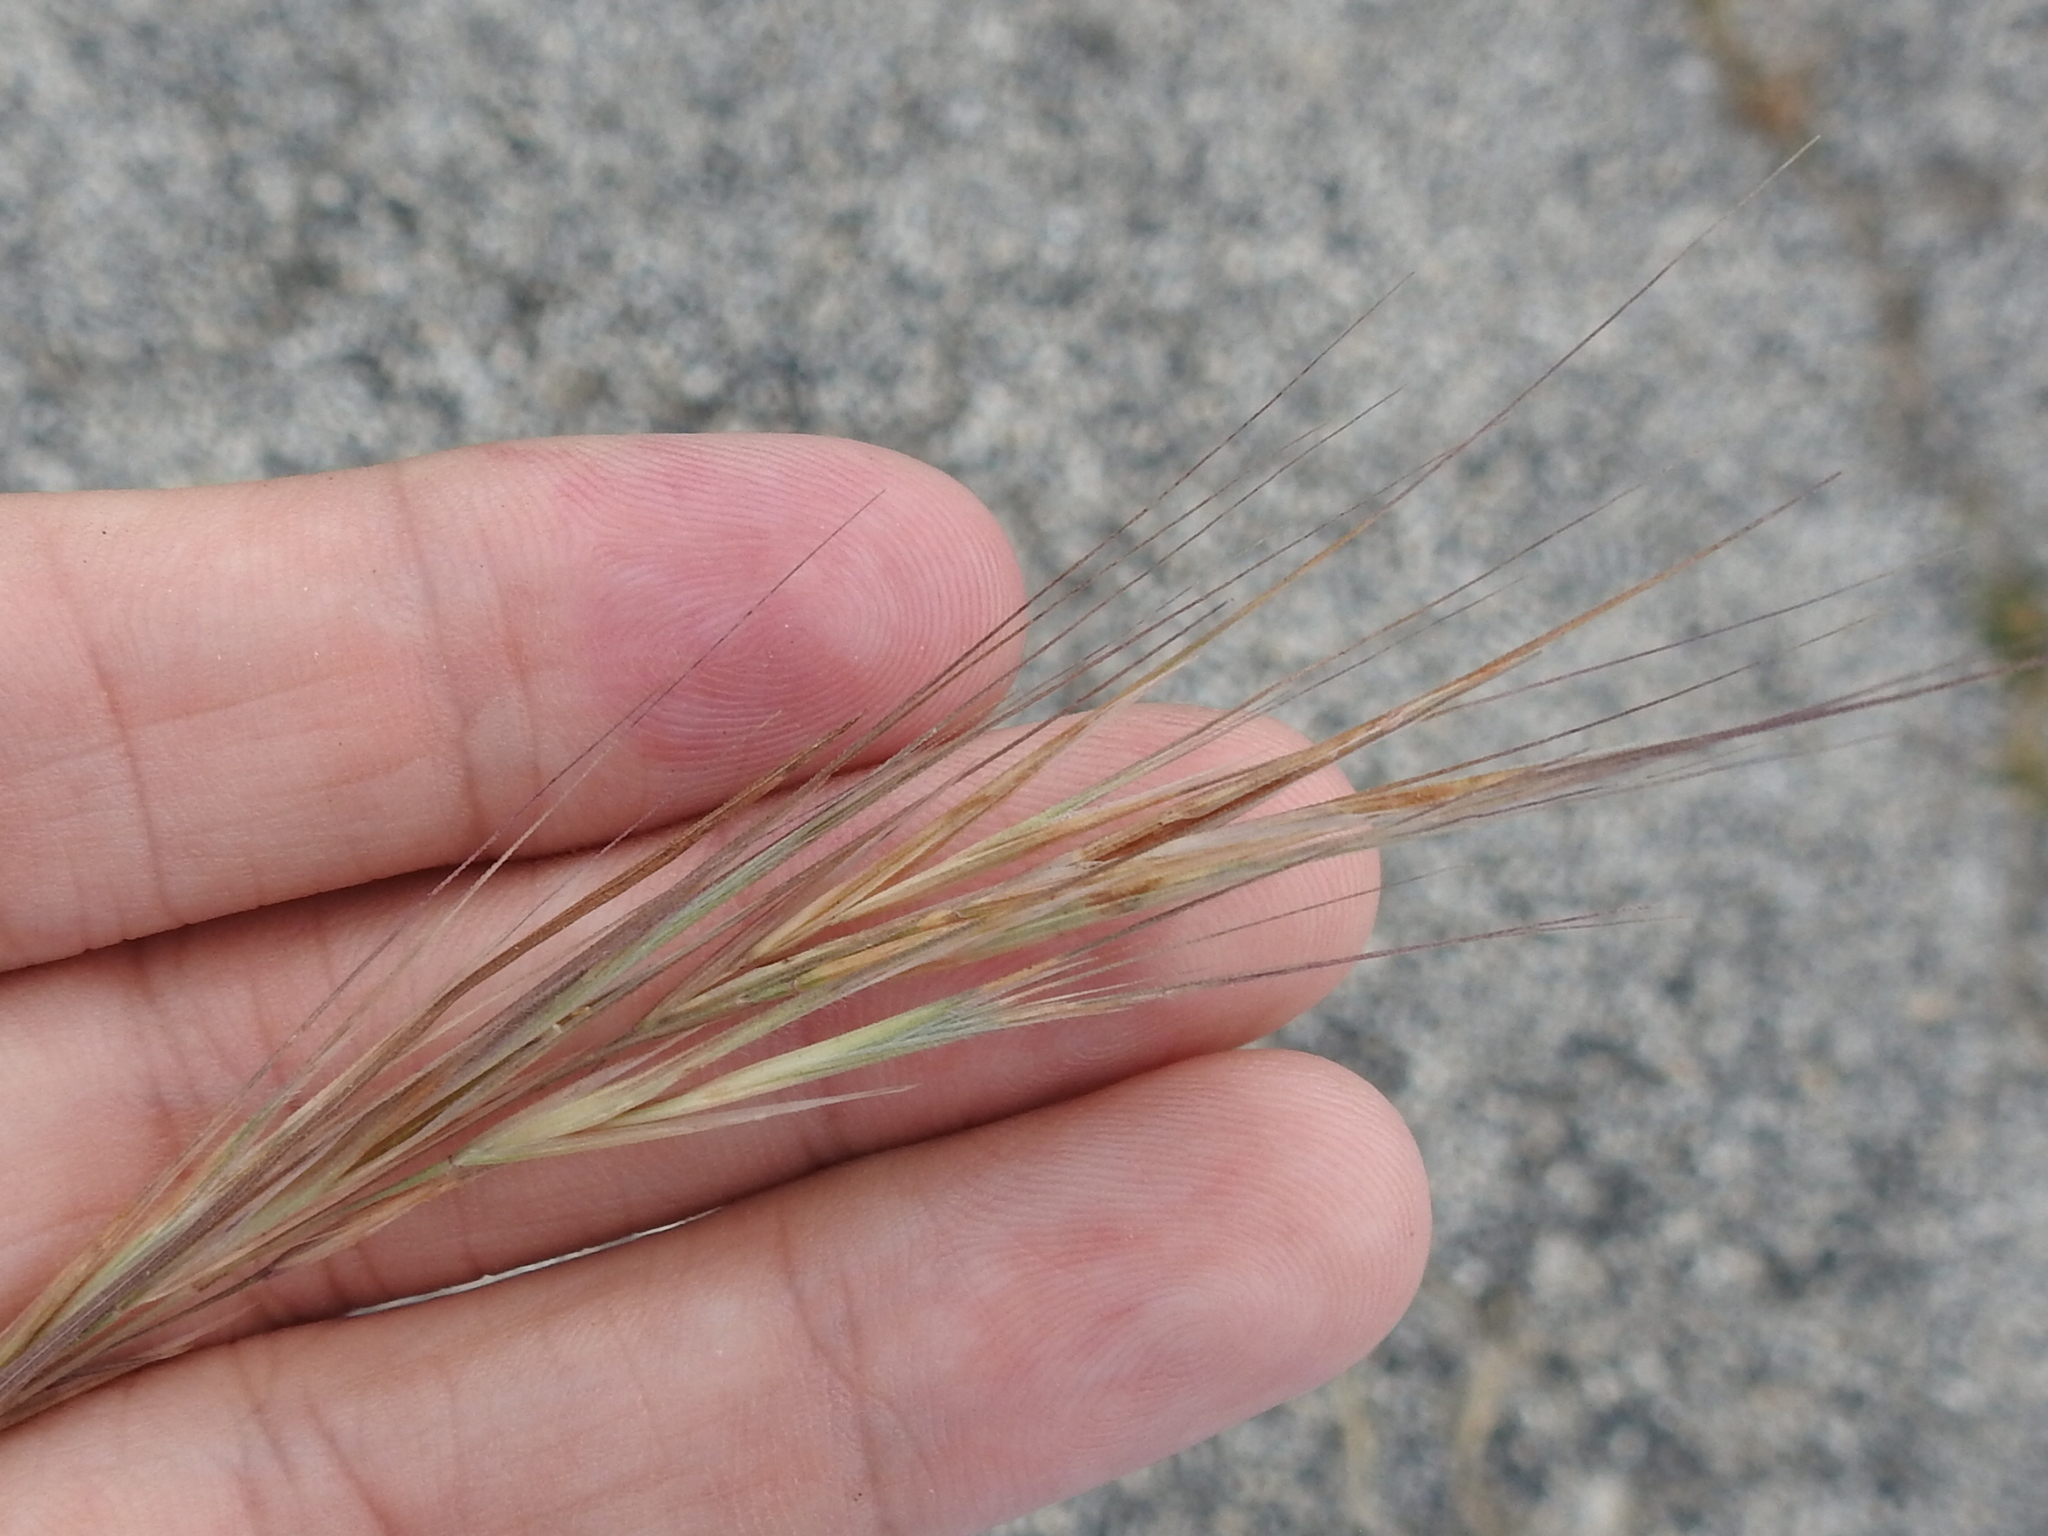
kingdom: Plantae
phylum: Tracheophyta
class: Liliopsida
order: Poales
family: Poaceae
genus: Bromus
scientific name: Bromus diandrus
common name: Ripgut brome
